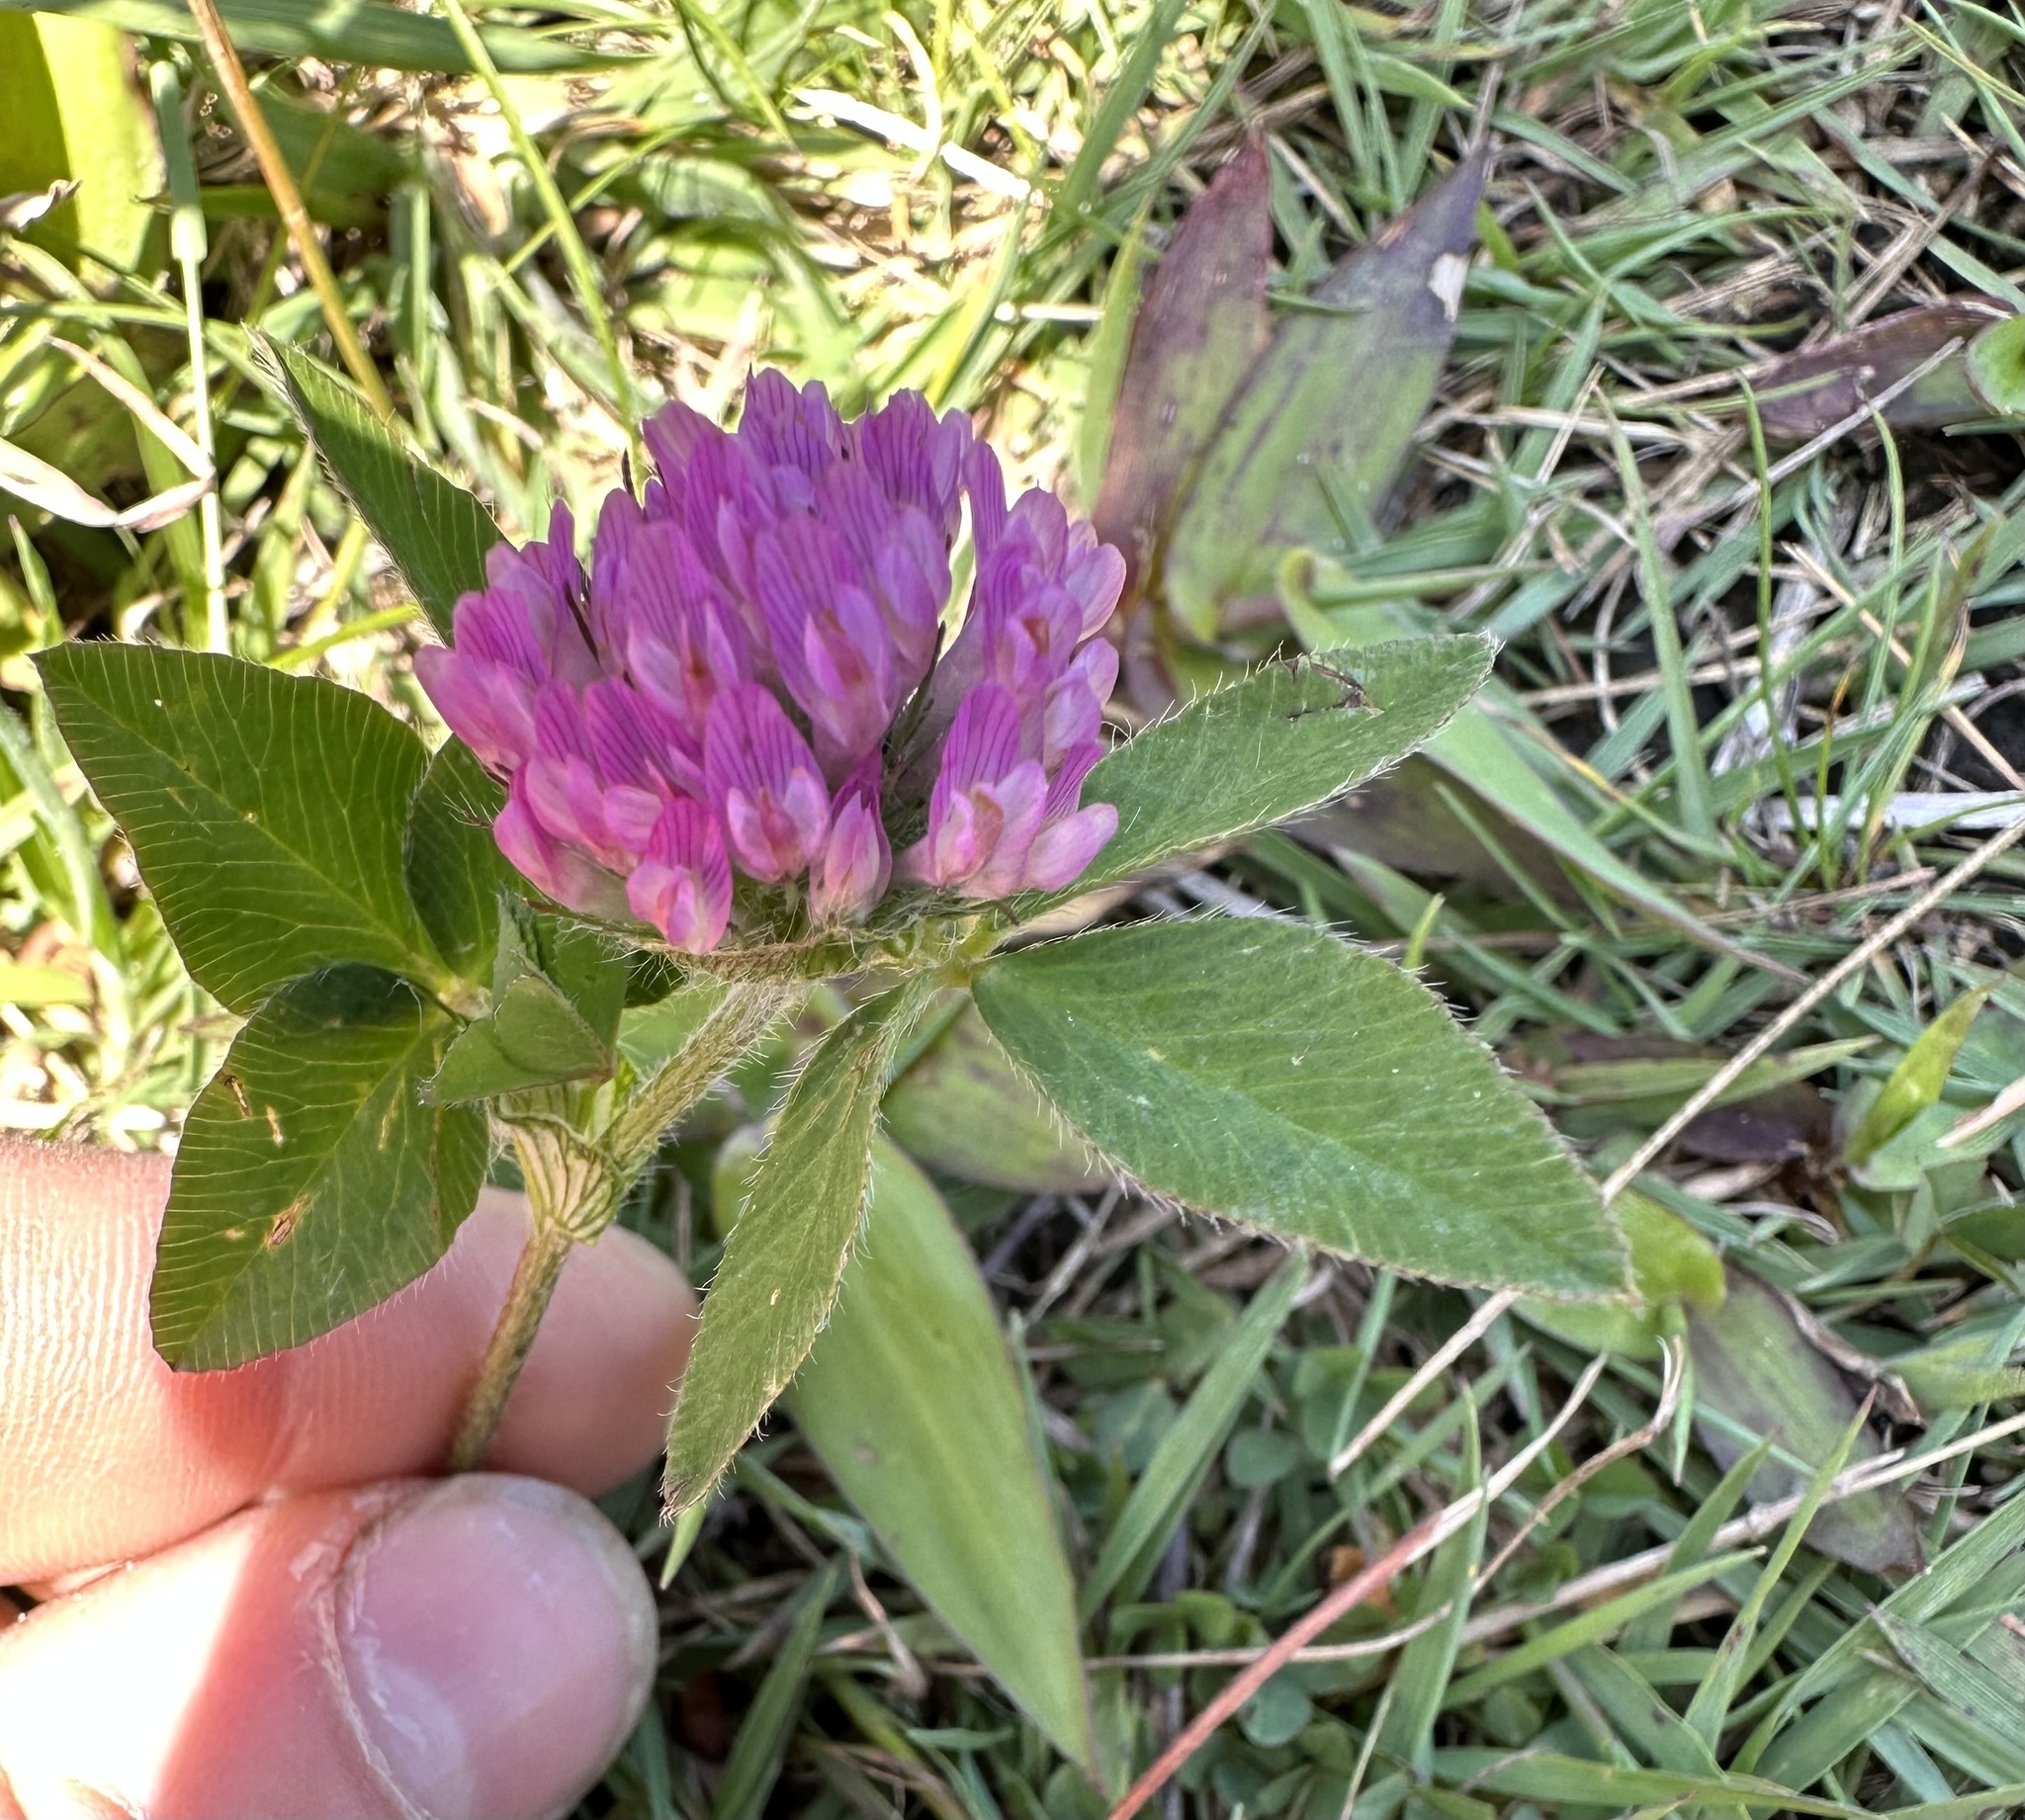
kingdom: Plantae
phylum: Tracheophyta
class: Magnoliopsida
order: Fabales
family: Fabaceae
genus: Trifolium
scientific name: Trifolium pratense
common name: Red clover
